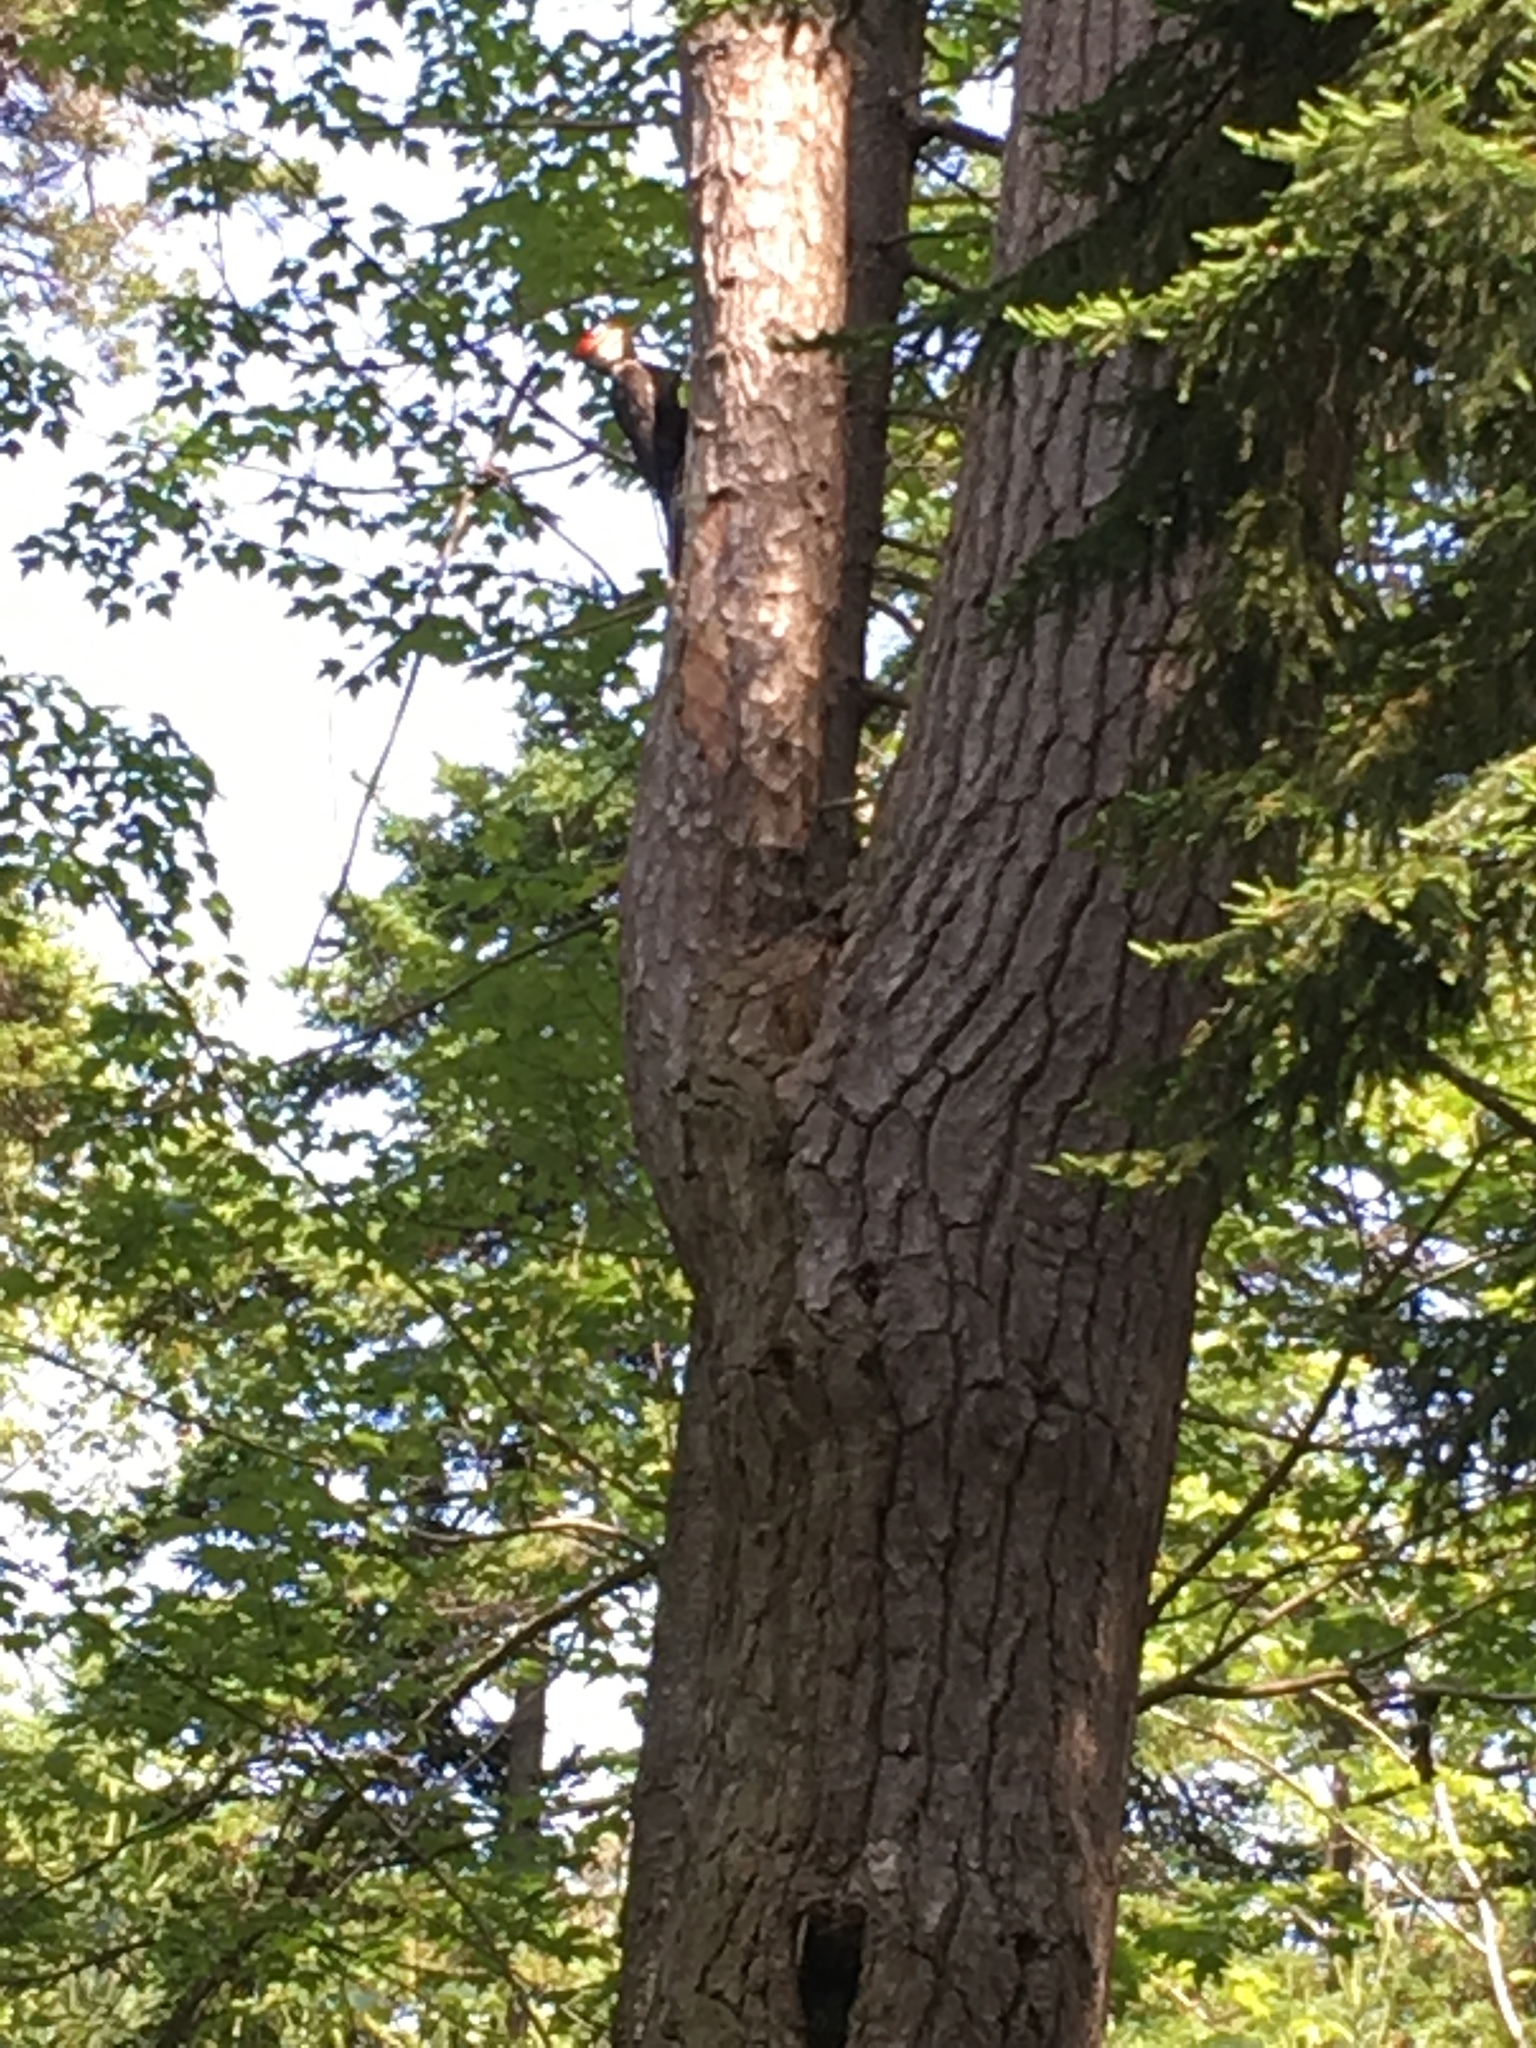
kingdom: Animalia
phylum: Chordata
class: Aves
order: Piciformes
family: Picidae
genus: Dryocopus
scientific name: Dryocopus pileatus
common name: Pileated woodpecker
